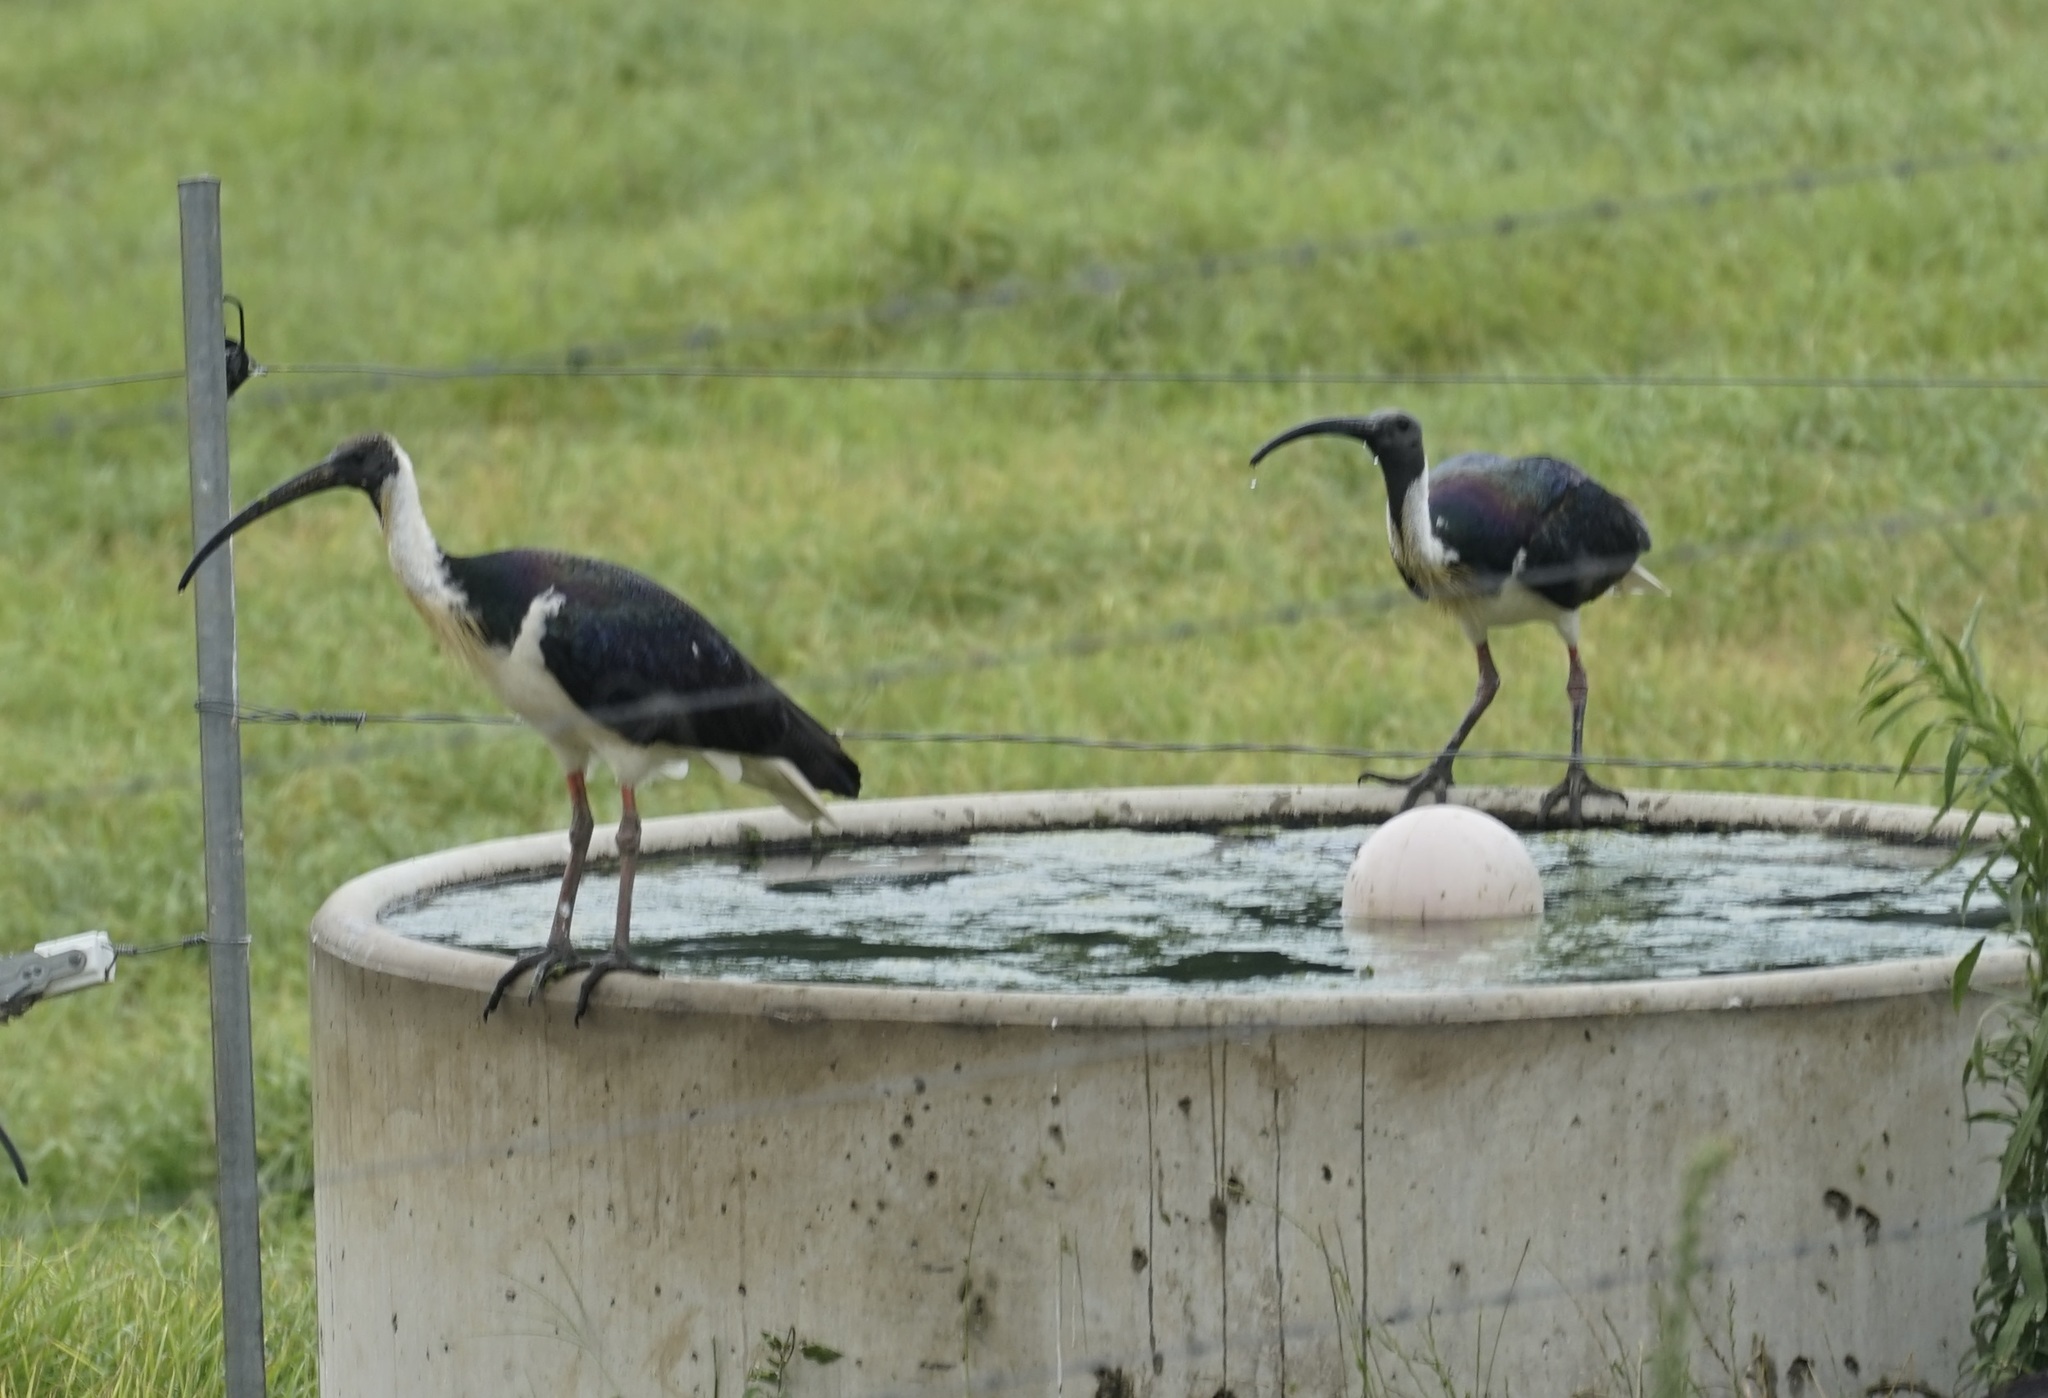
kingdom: Animalia
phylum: Chordata
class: Aves
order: Pelecaniformes
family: Threskiornithidae
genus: Threskiornis
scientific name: Threskiornis spinicollis
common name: Straw-necked ibis
